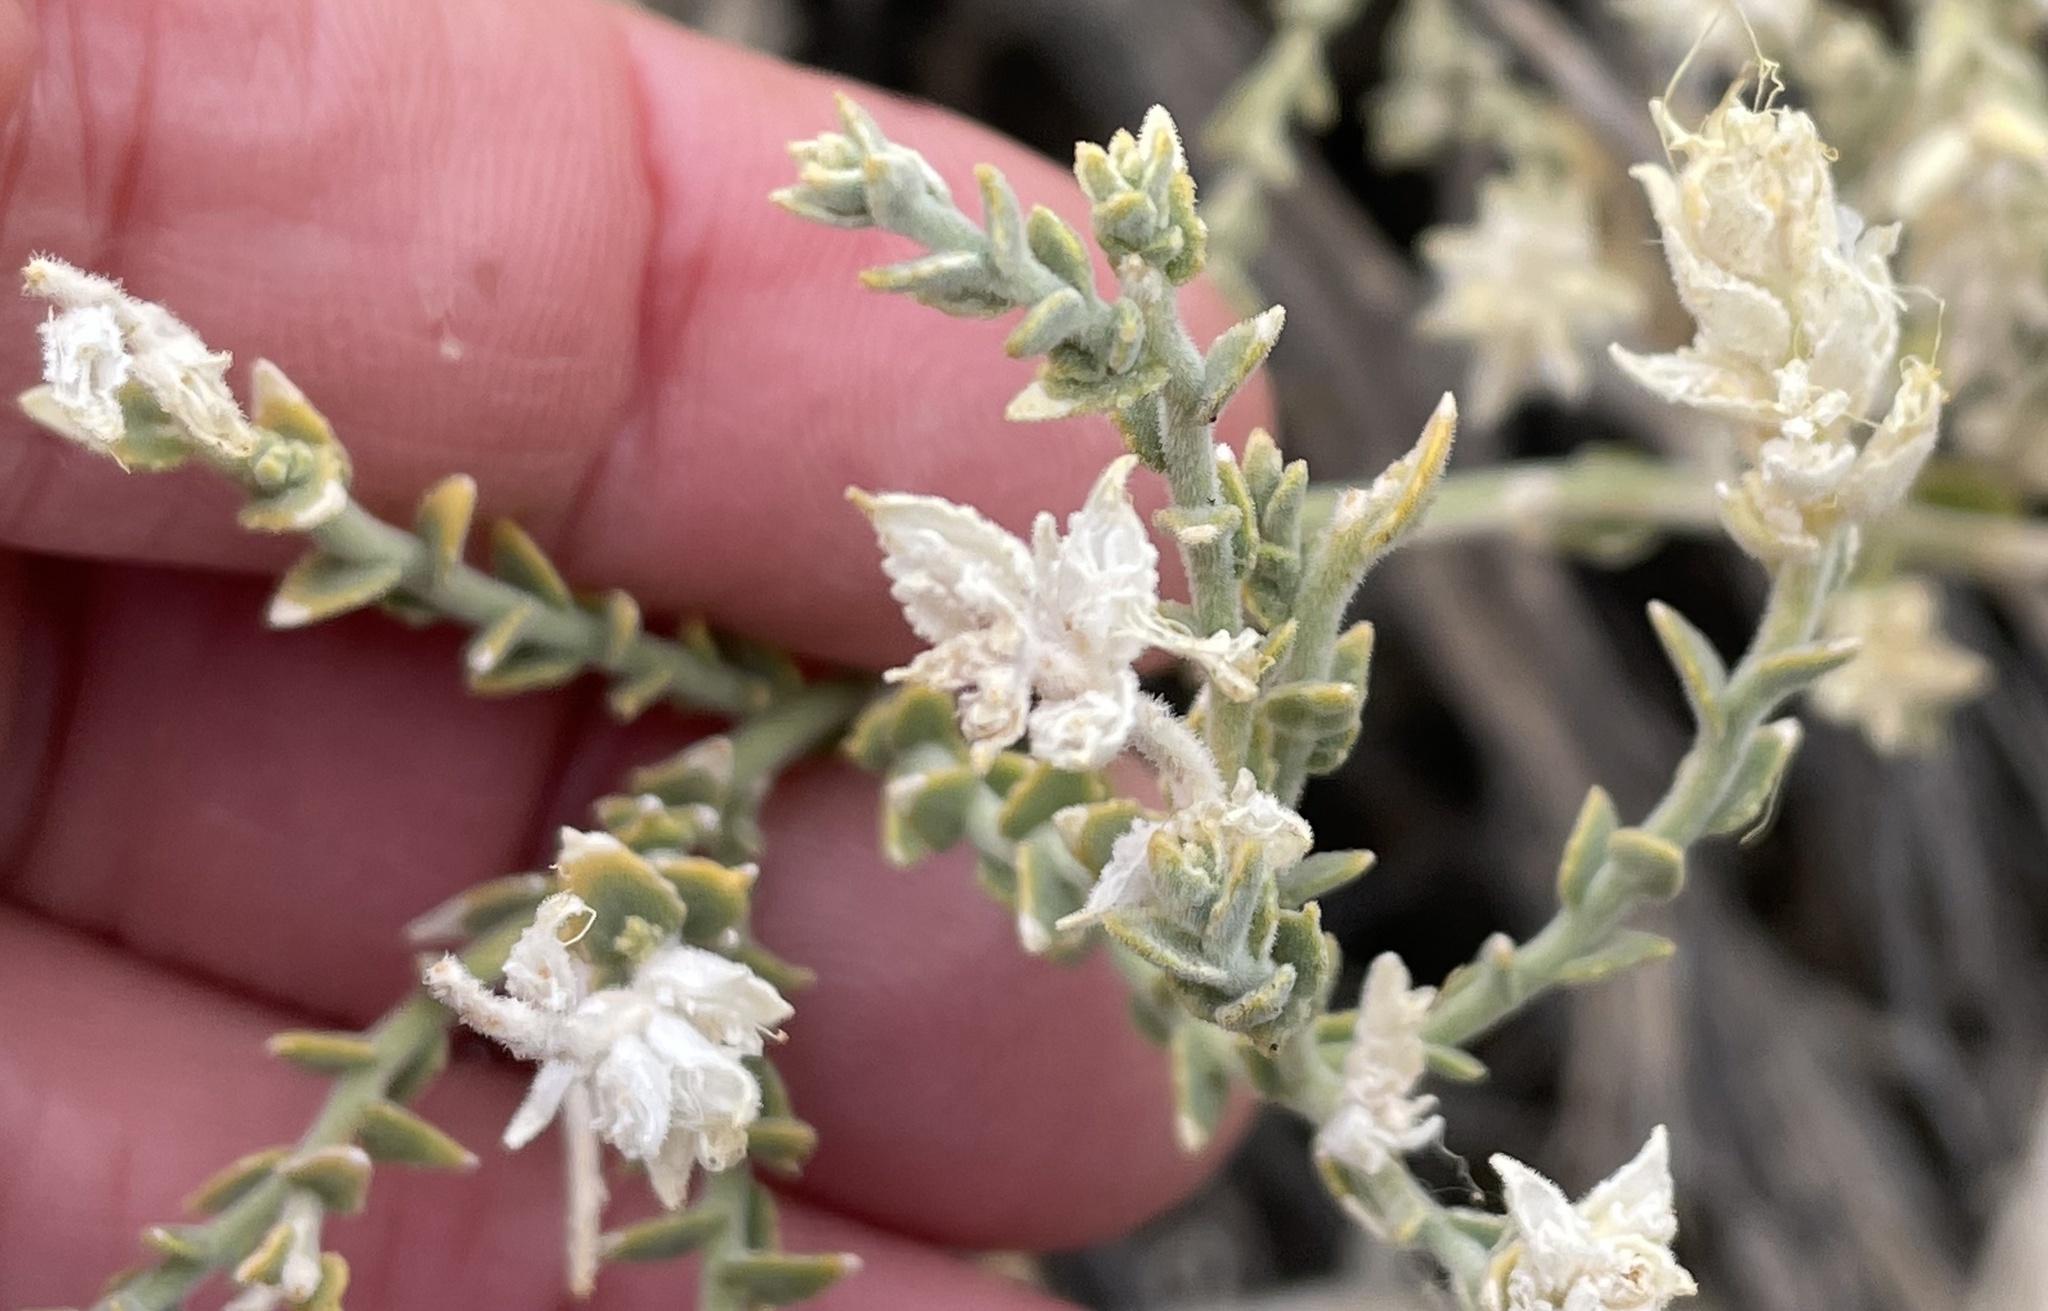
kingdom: Plantae
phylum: Tracheophyta
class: Magnoliopsida
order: Cornales
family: Loasaceae
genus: Petalonyx
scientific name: Petalonyx thurberi
